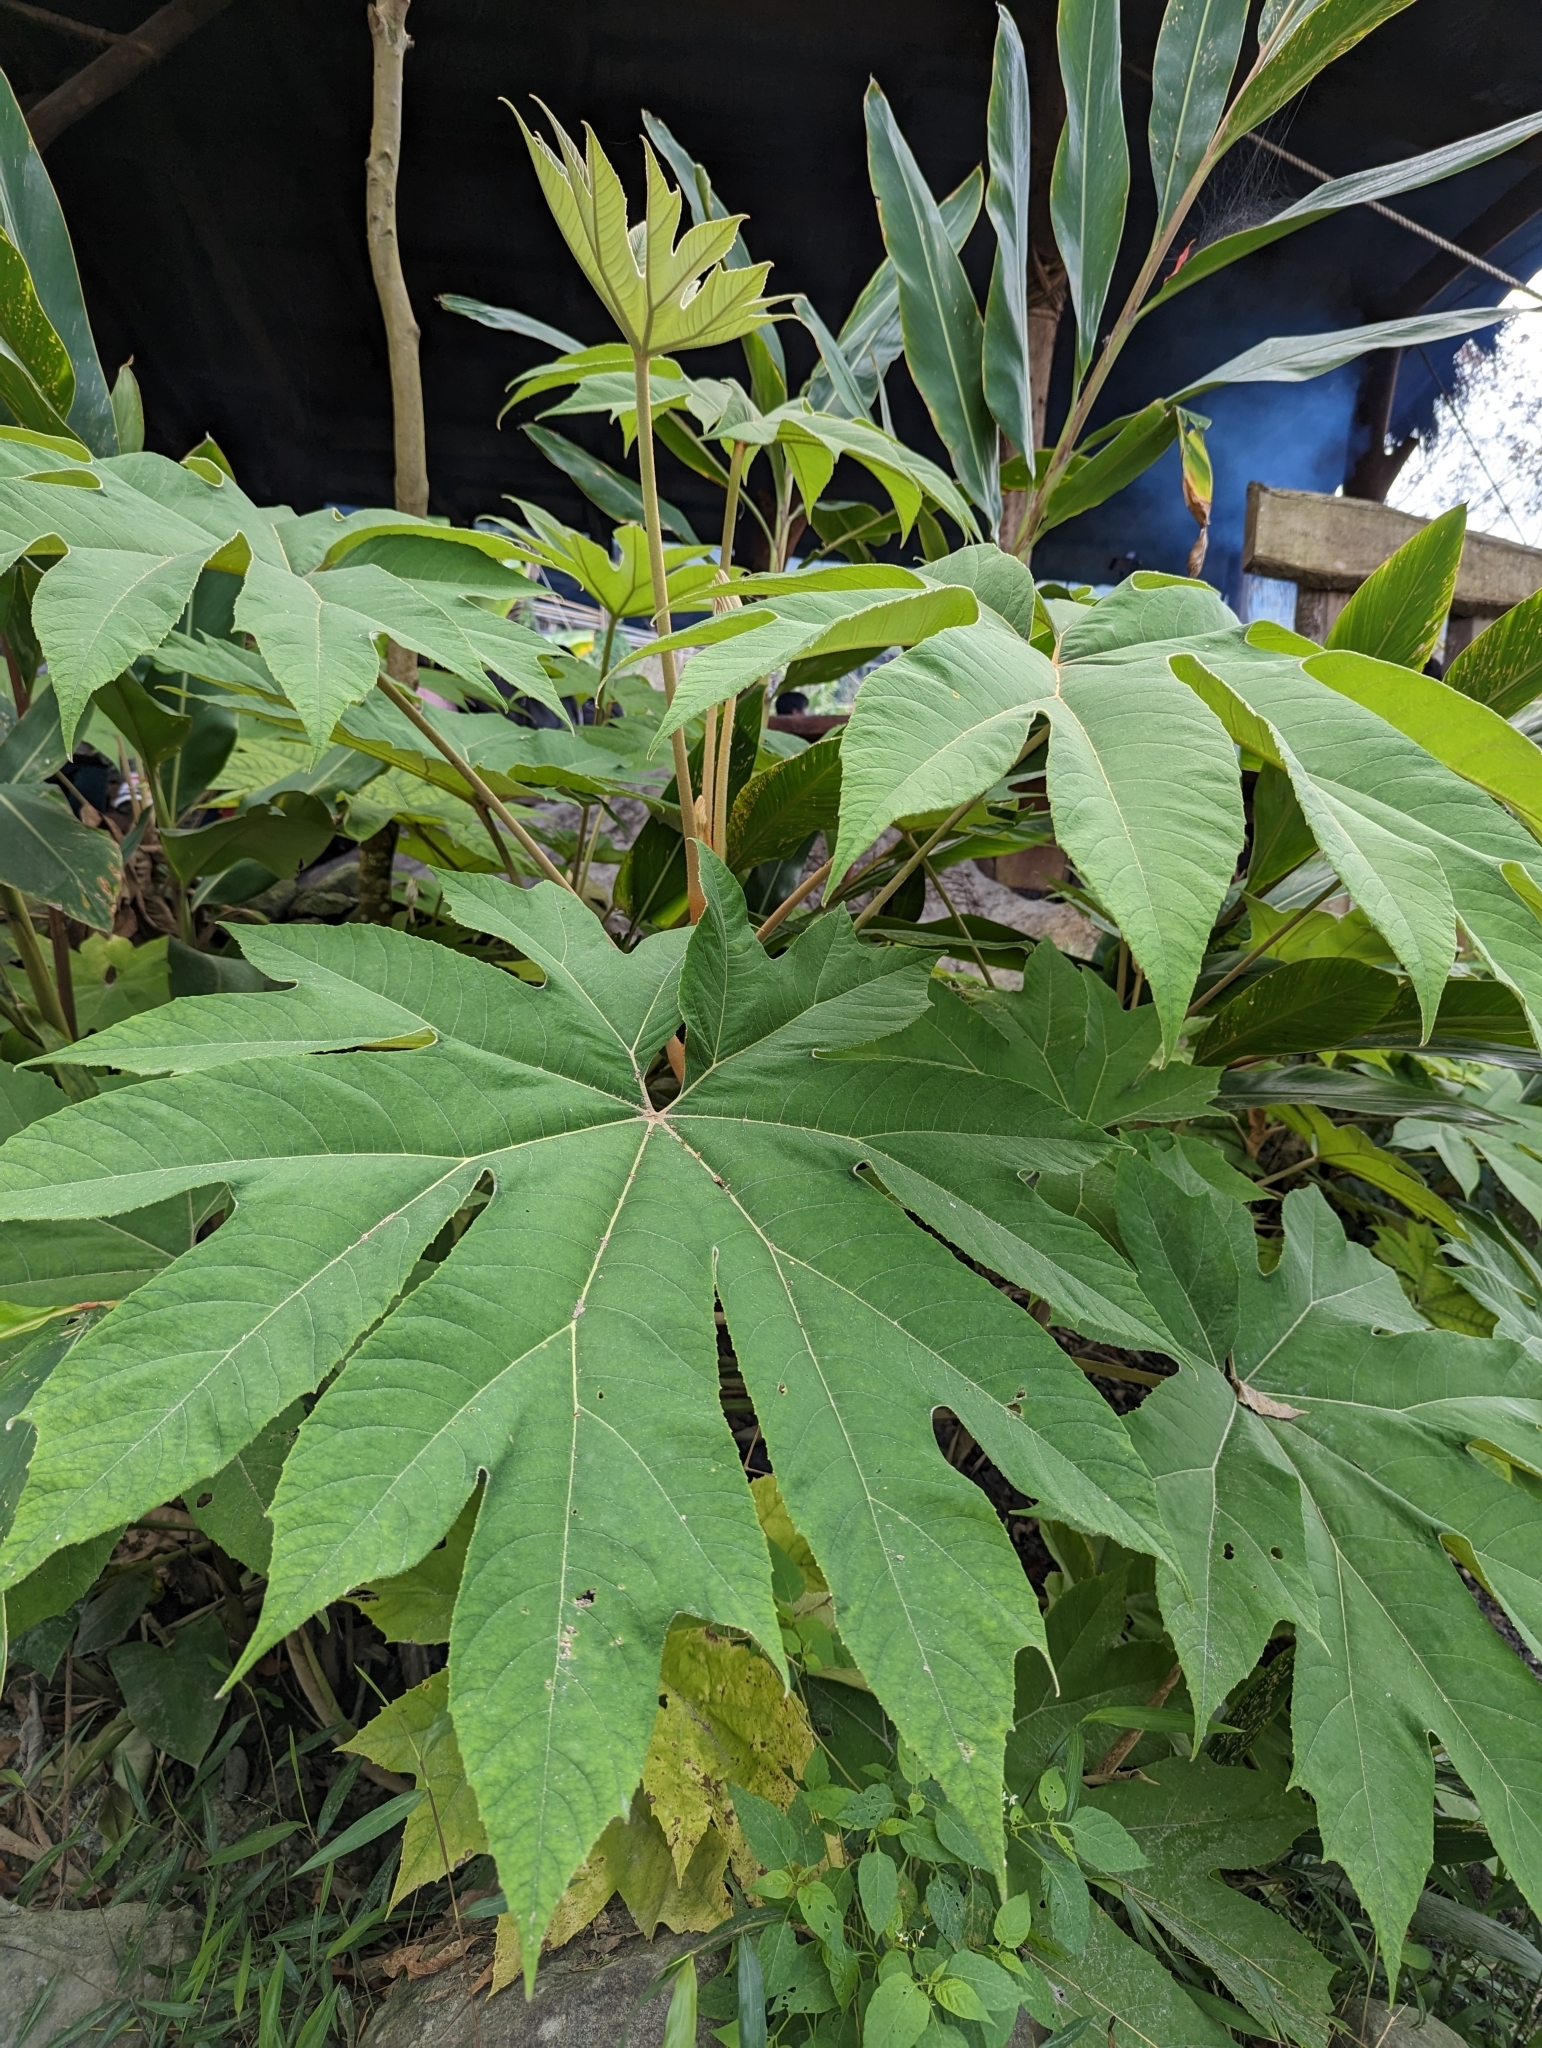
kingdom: Plantae
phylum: Tracheophyta
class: Magnoliopsida
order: Apiales
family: Araliaceae
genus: Tetrapanax
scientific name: Tetrapanax papyrifer
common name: Rice-paper plant
